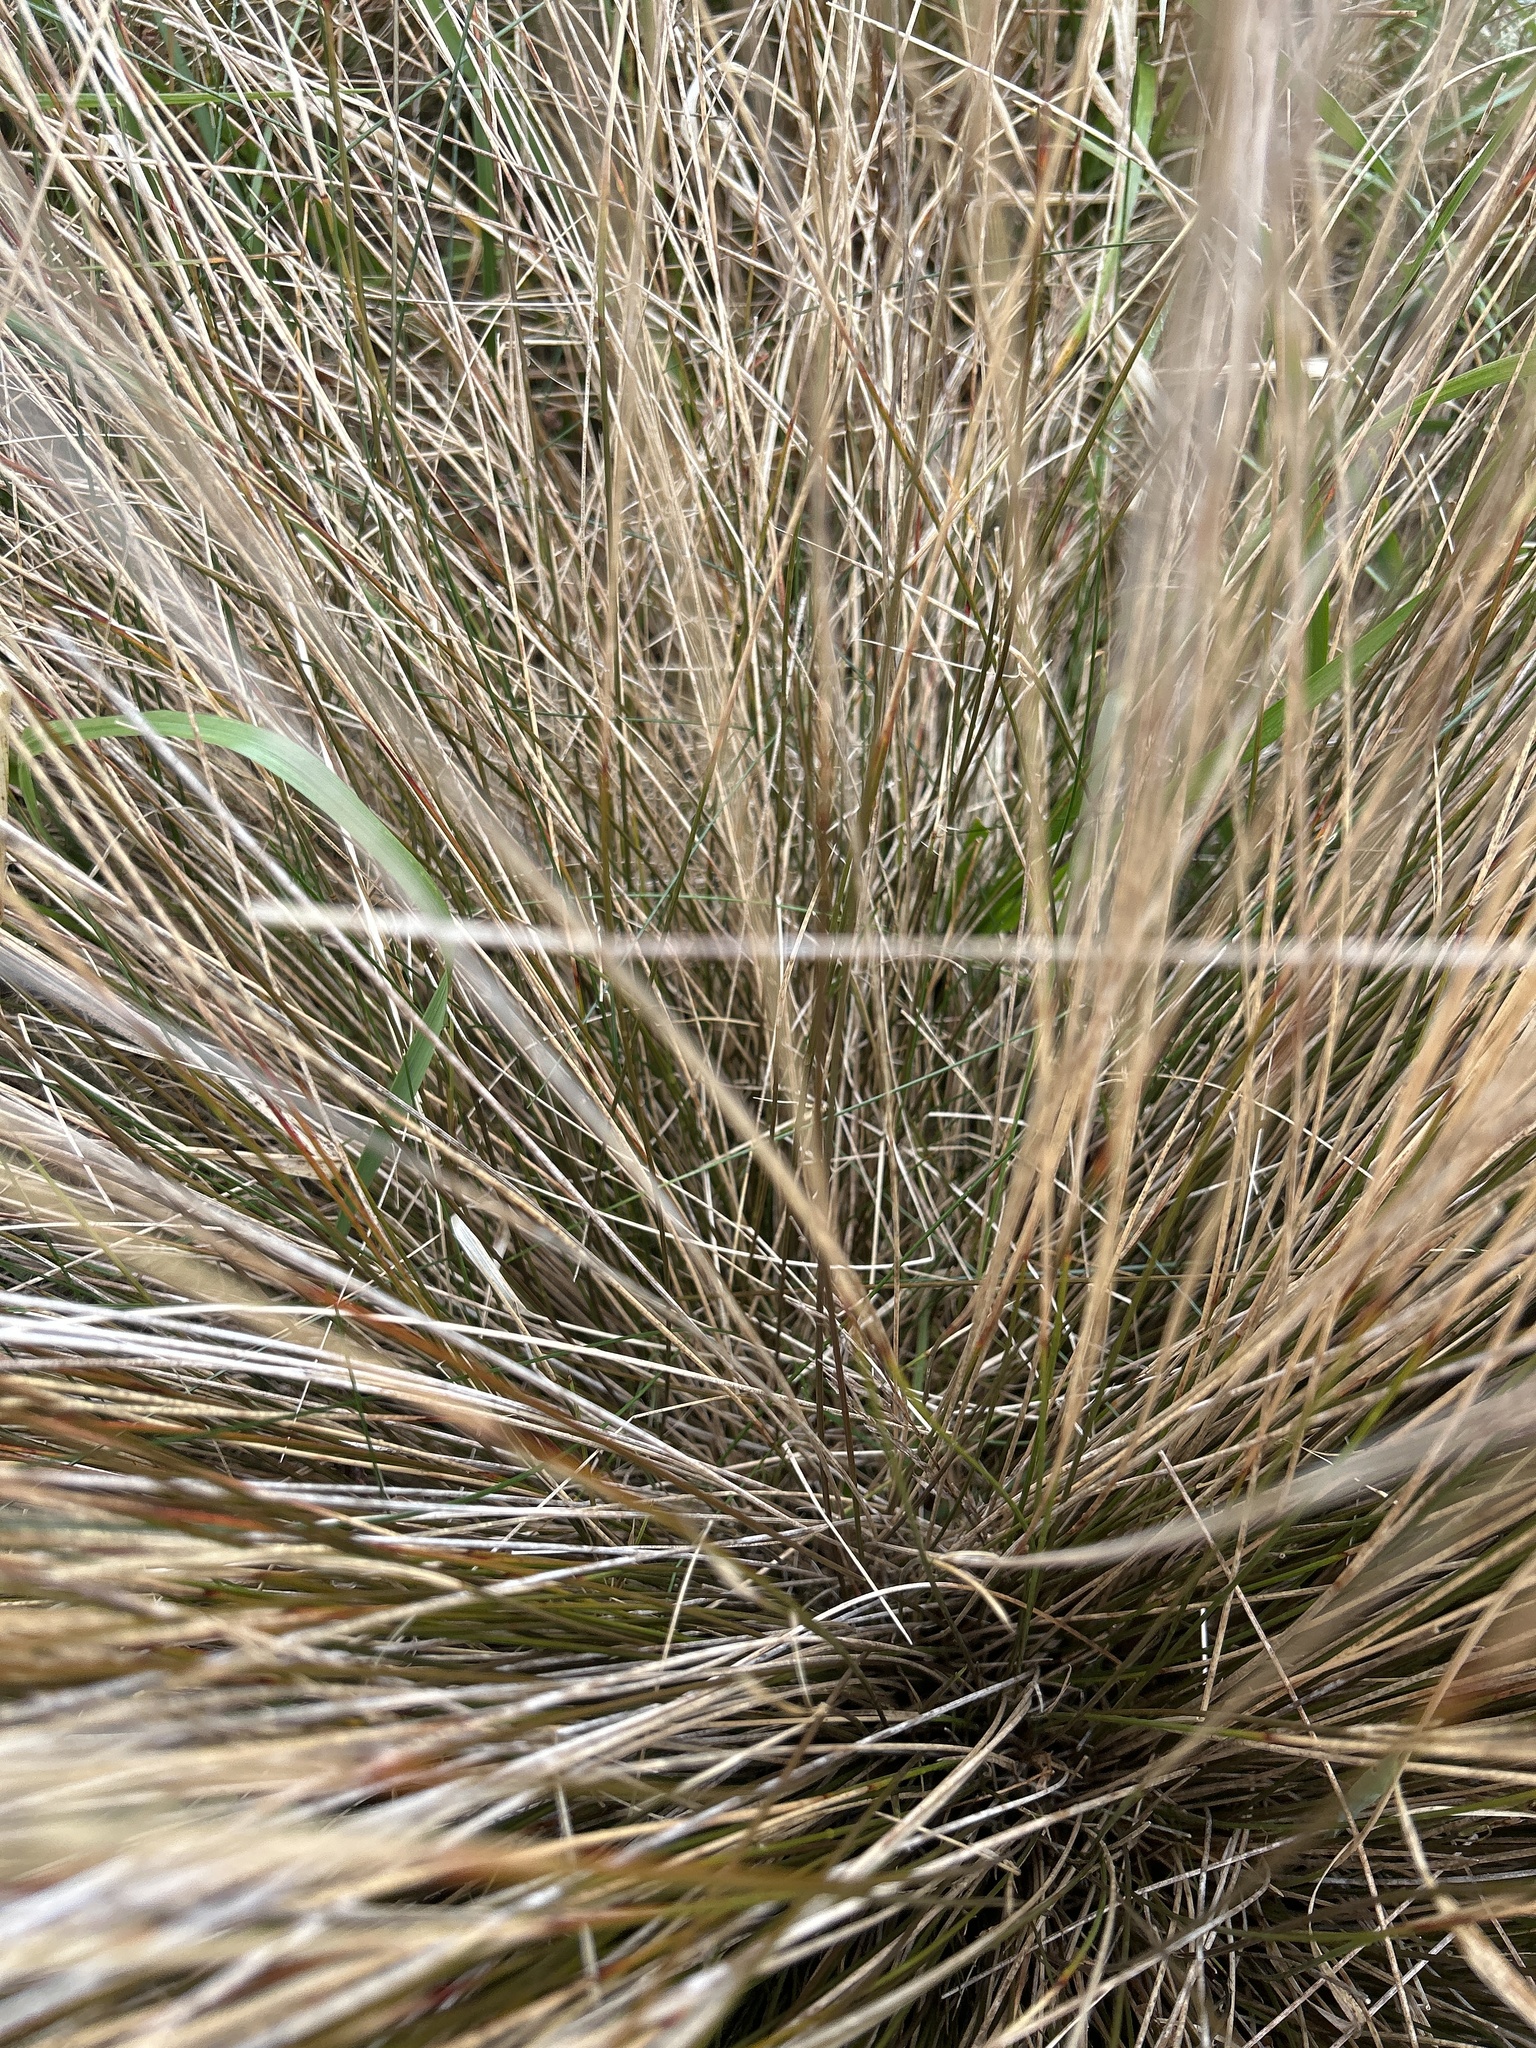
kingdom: Plantae
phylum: Tracheophyta
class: Liliopsida
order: Poales
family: Cyperaceae
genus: Schoenus
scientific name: Schoenus pauciflorus
